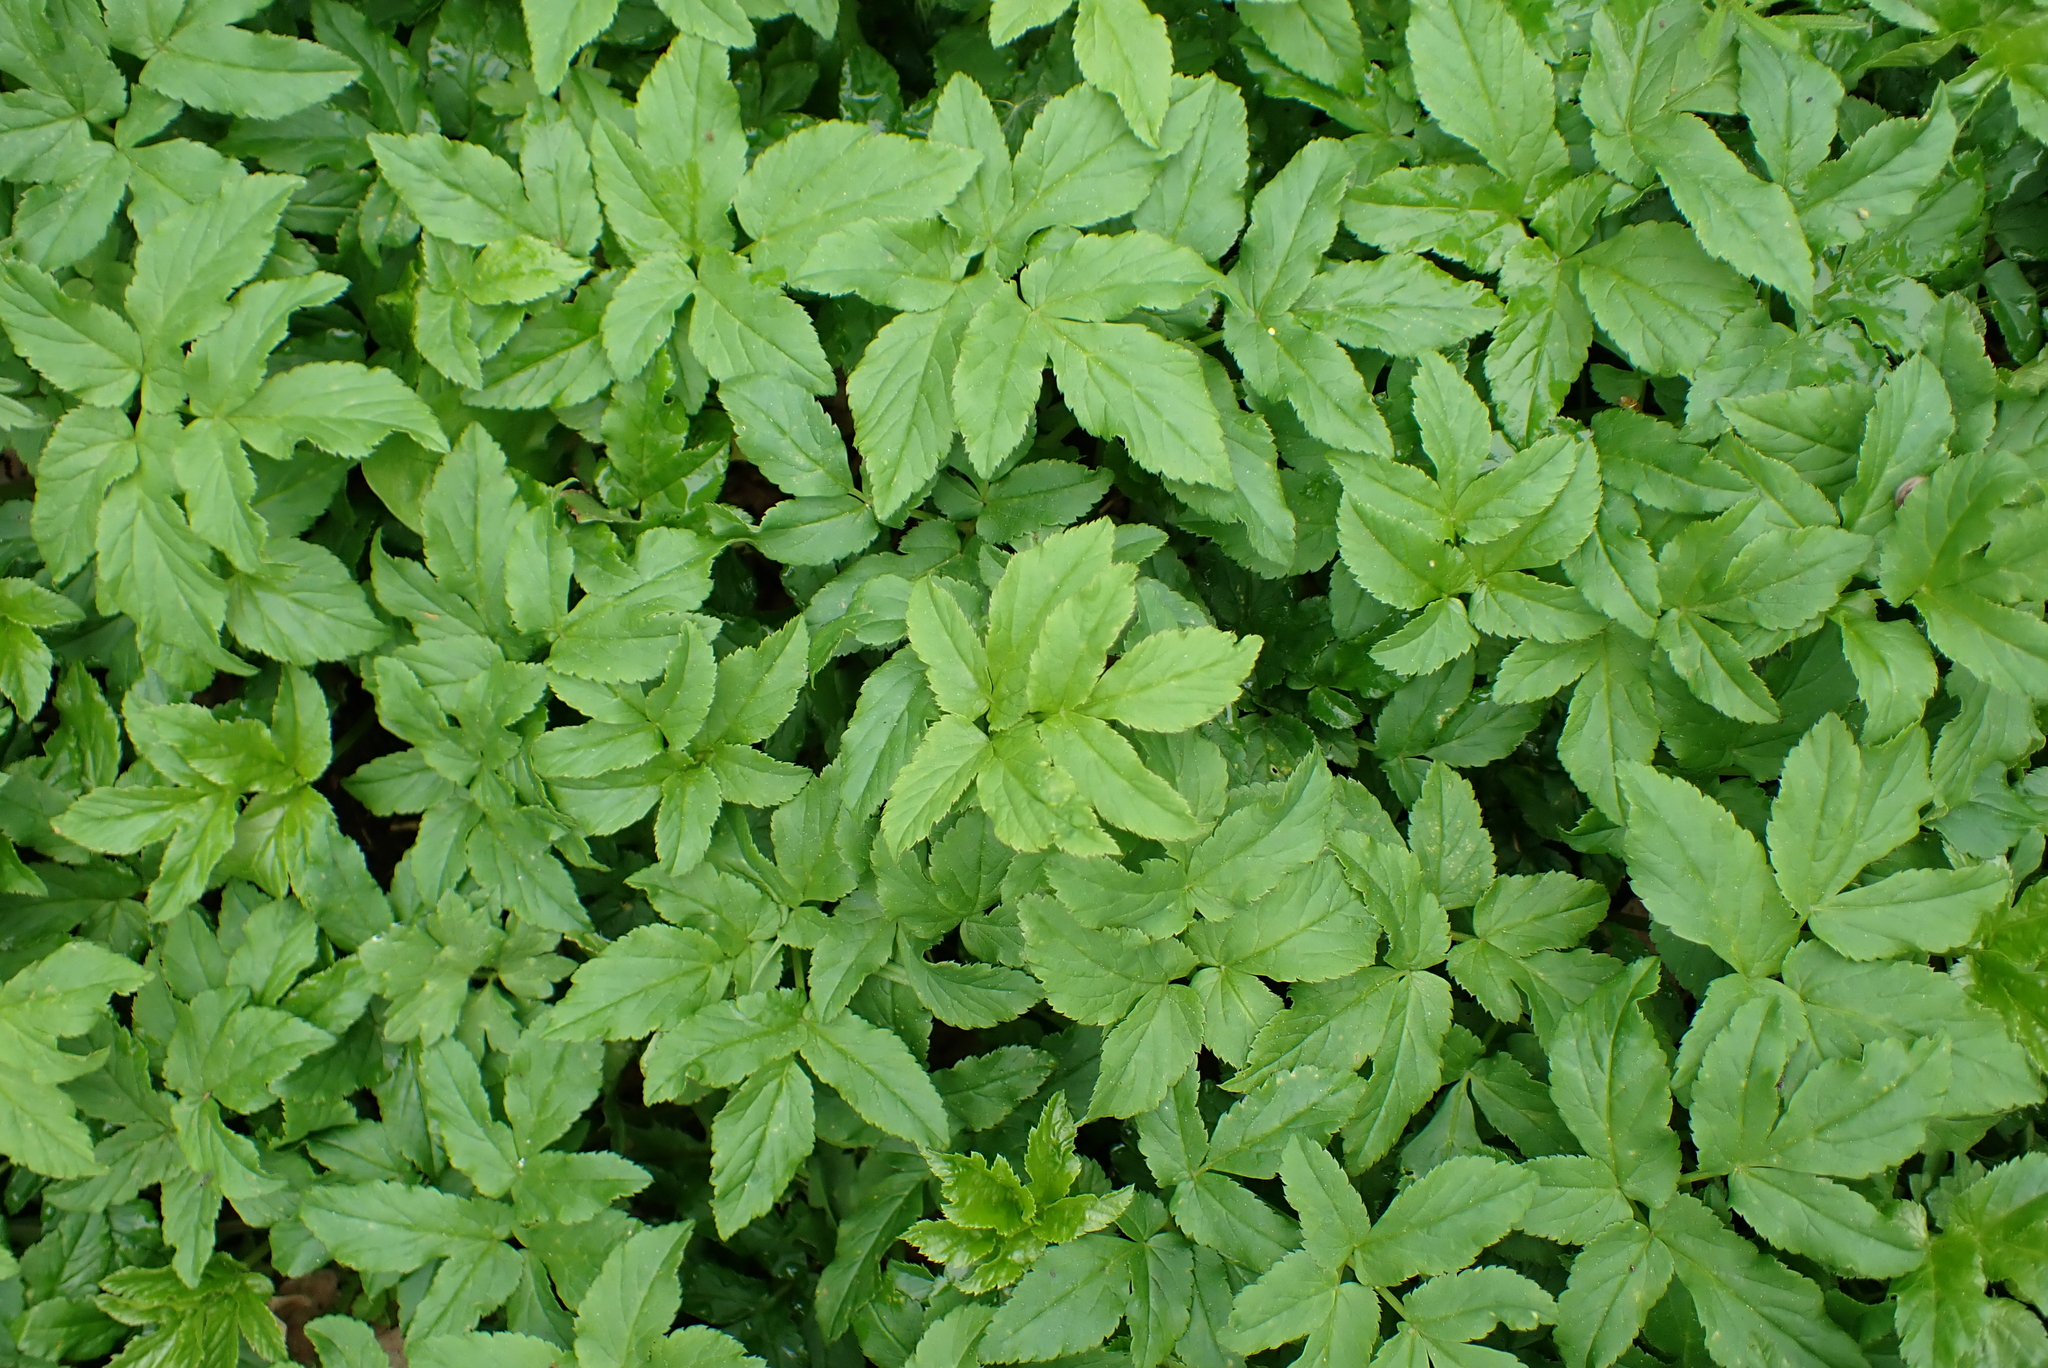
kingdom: Plantae
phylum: Tracheophyta
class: Magnoliopsida
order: Apiales
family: Apiaceae
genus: Aegopodium
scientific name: Aegopodium podagraria
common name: Ground-elder
